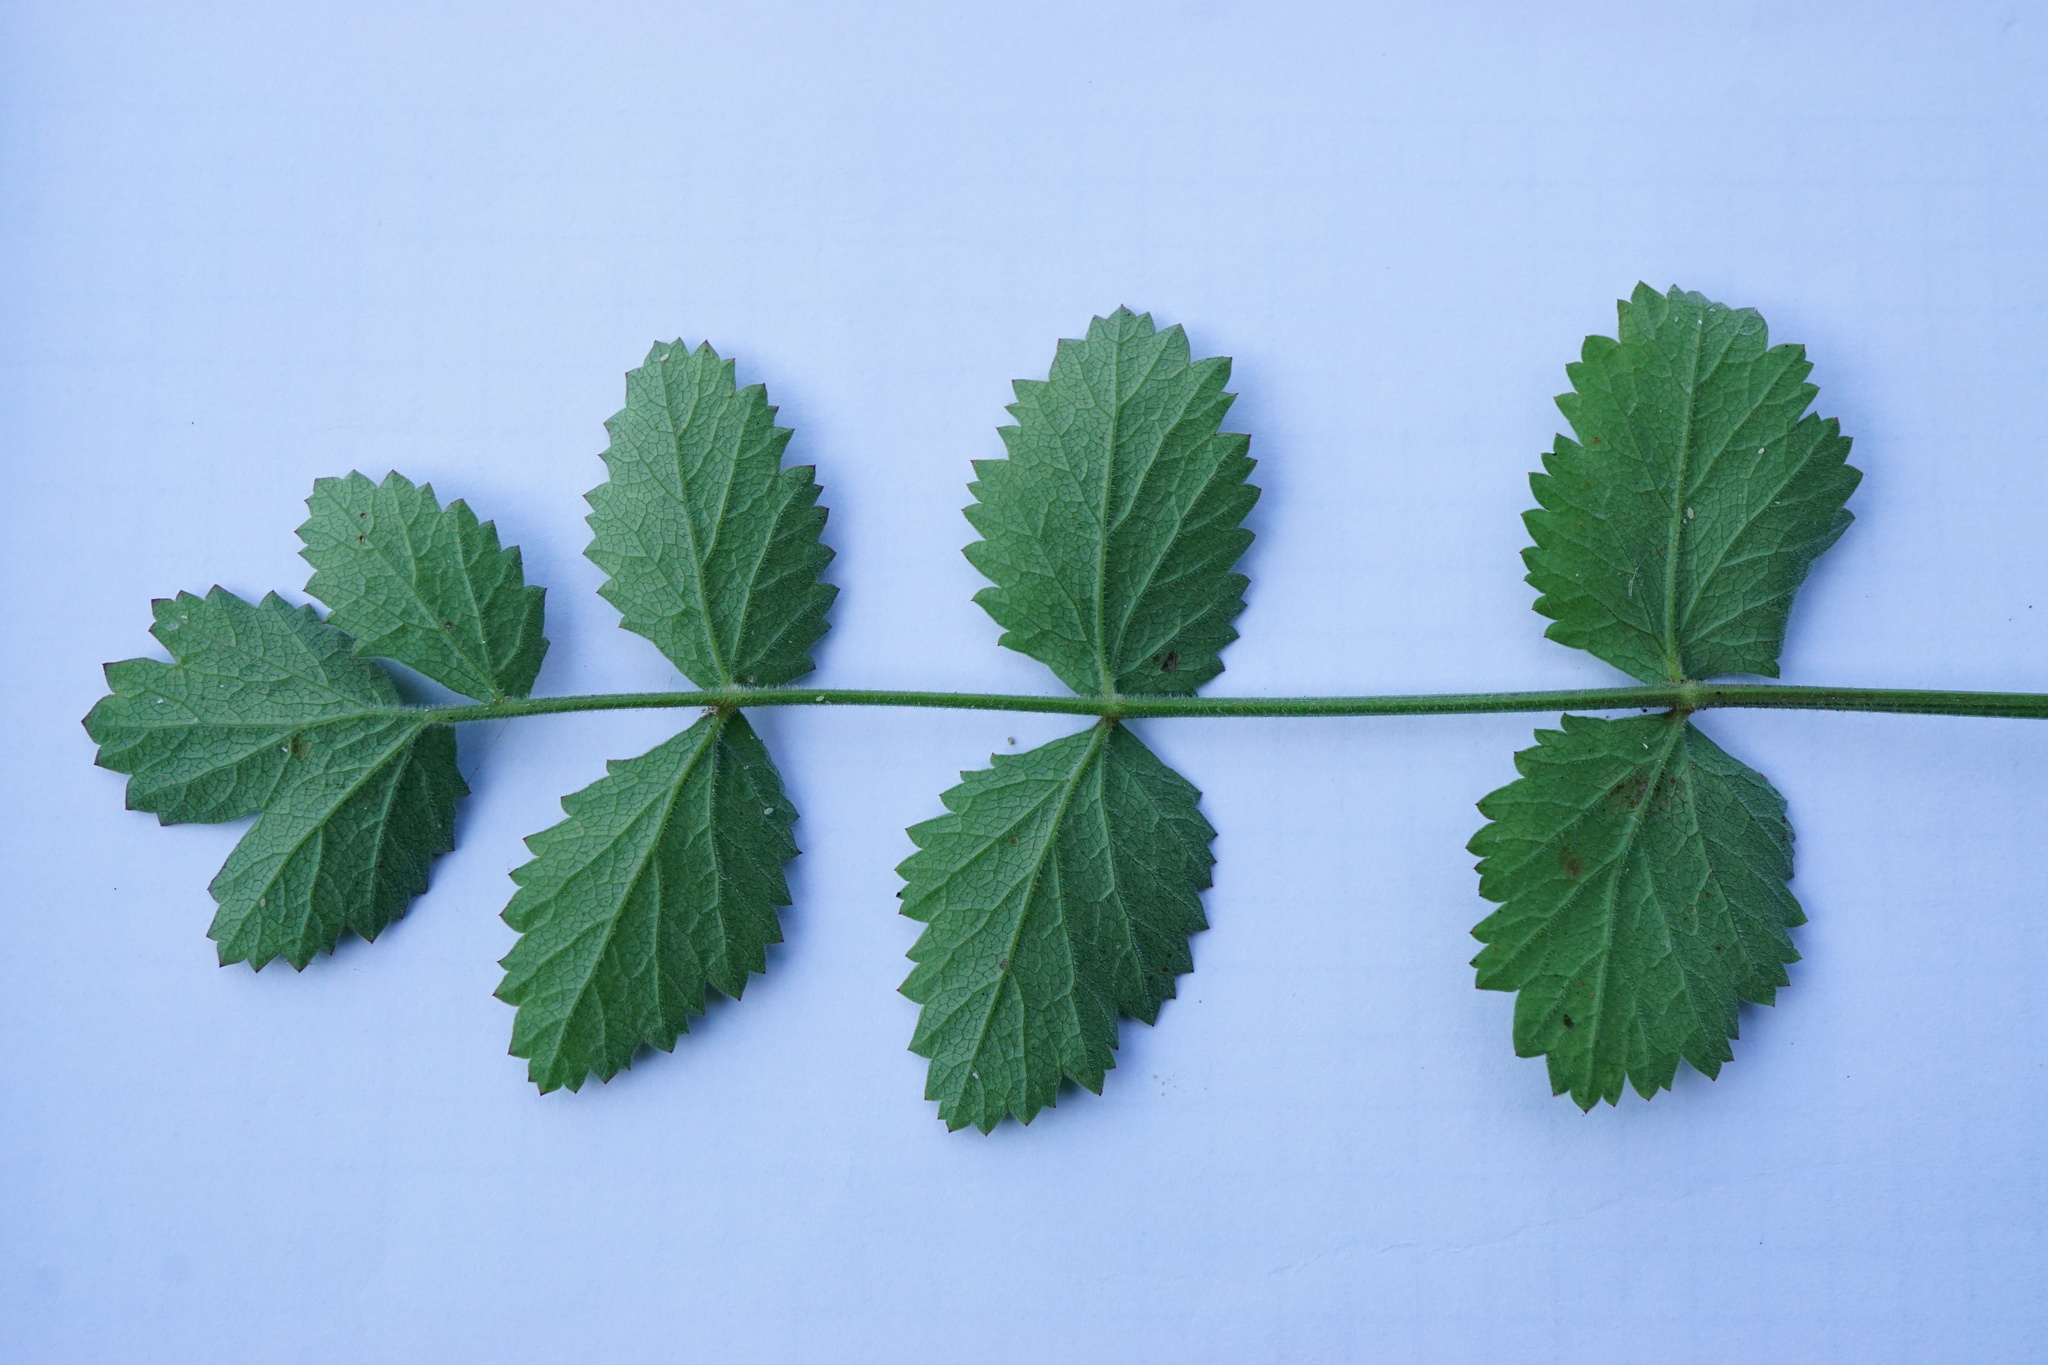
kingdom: Plantae
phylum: Tracheophyta
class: Magnoliopsida
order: Apiales
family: Apiaceae
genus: Pimpinella
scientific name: Pimpinella saxifraga
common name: Burnet-saxifrage
